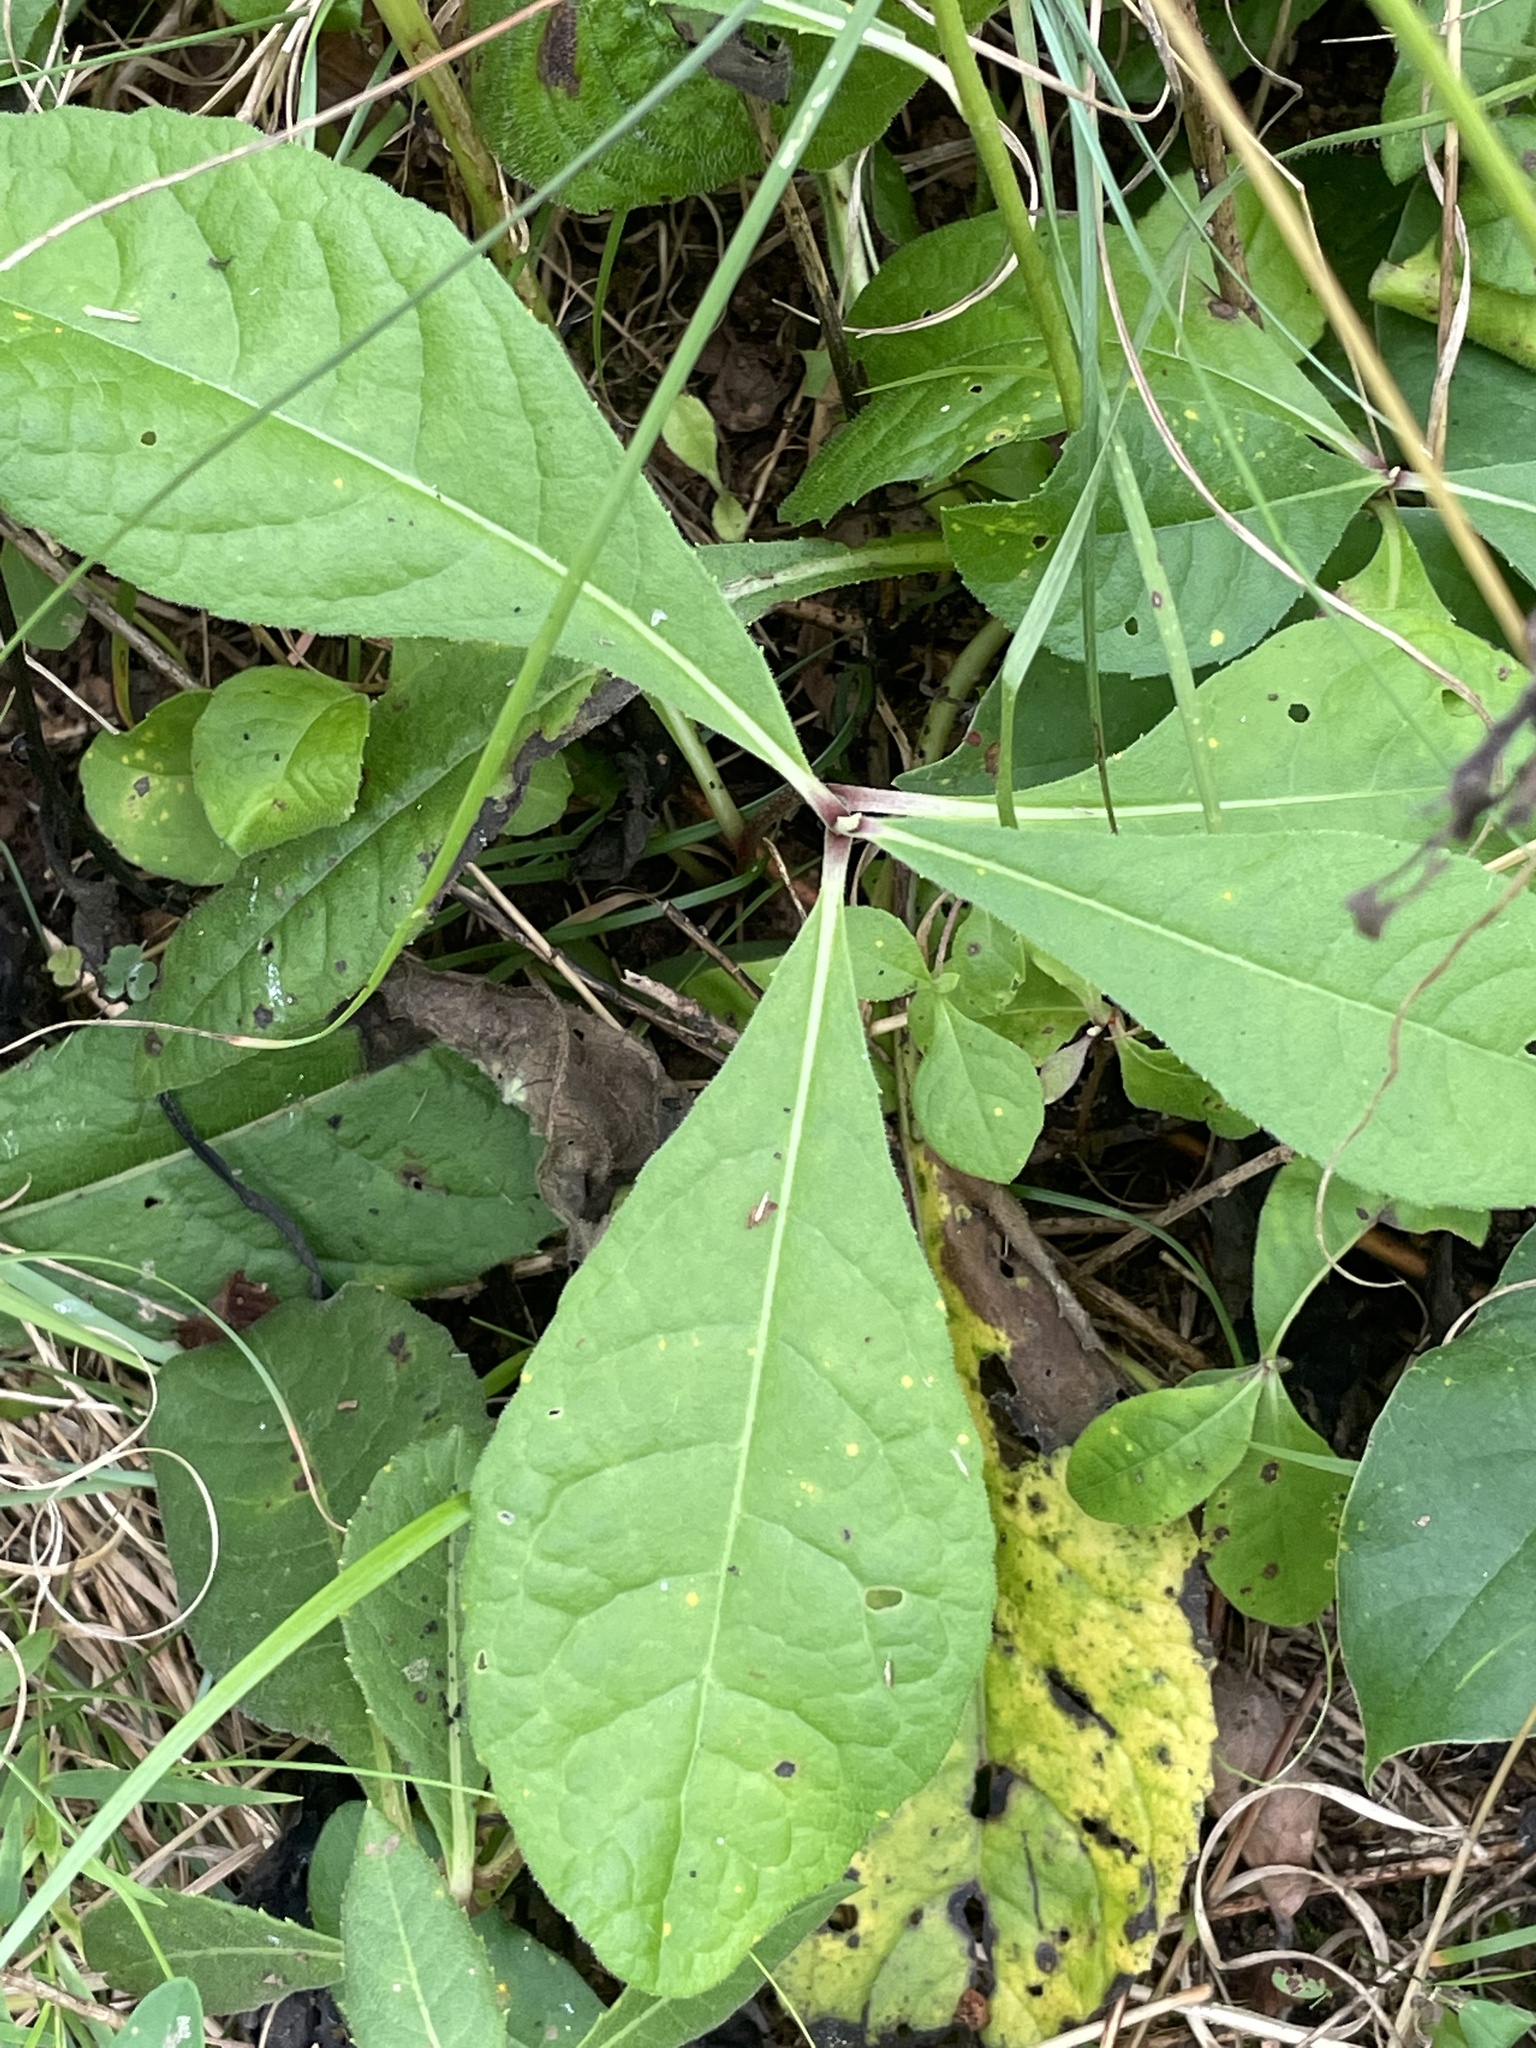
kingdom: Plantae
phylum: Tracheophyta
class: Magnoliopsida
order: Asterales
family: Asteraceae
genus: Vernonia
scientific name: Vernonia acaulis
